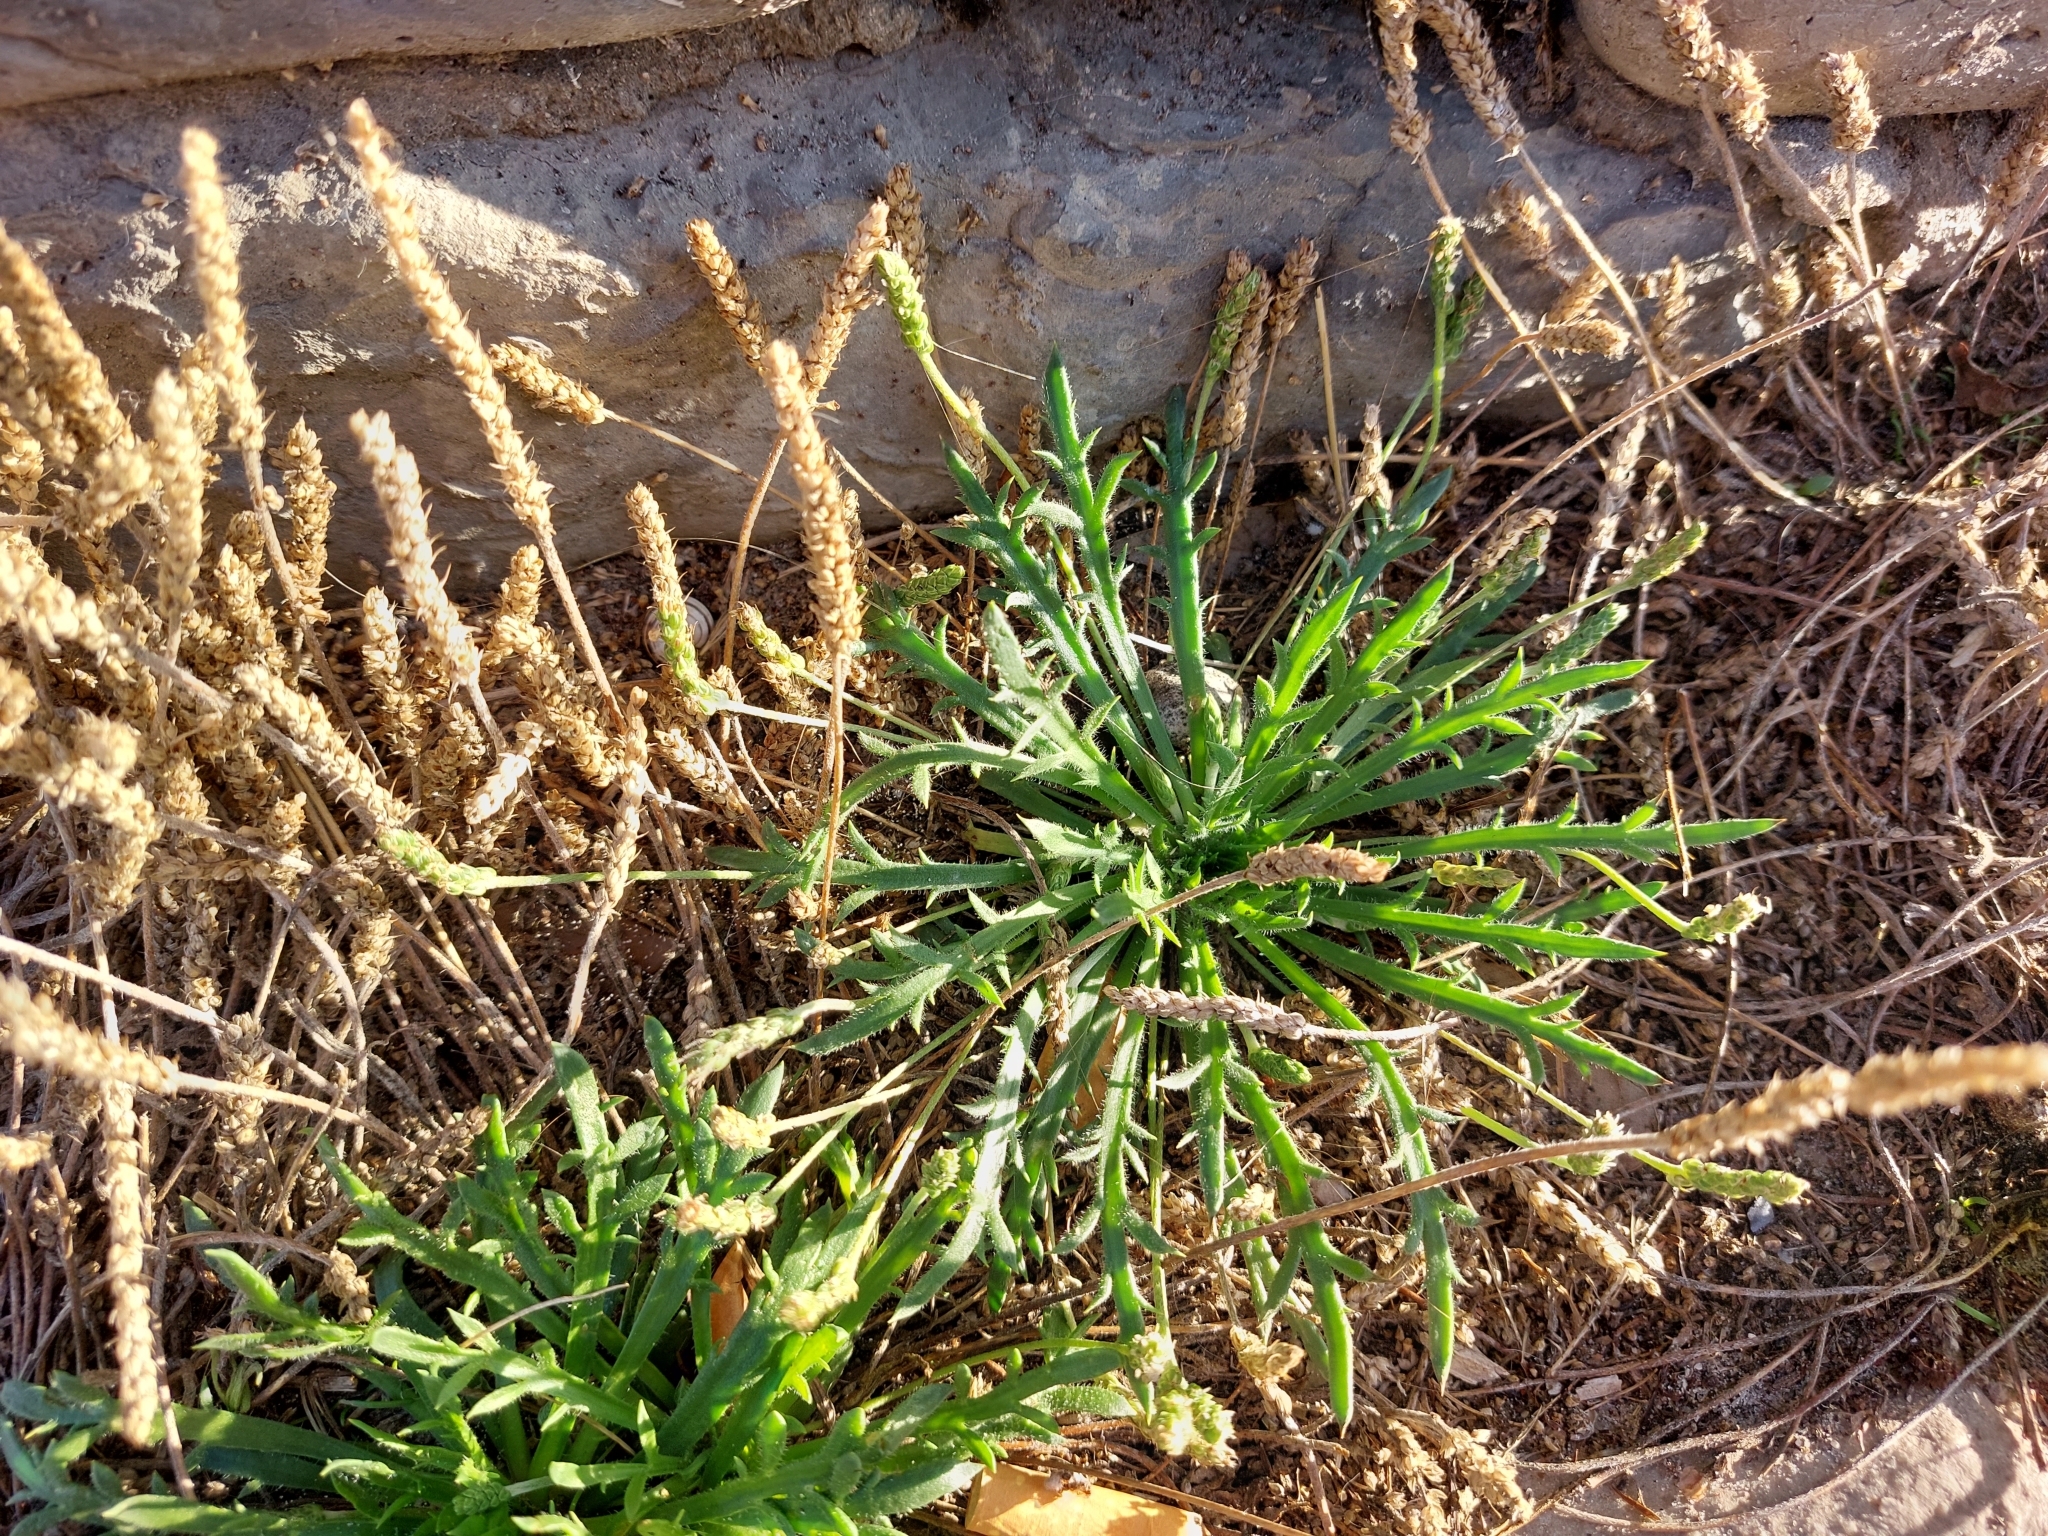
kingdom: Plantae
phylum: Tracheophyta
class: Magnoliopsida
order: Lamiales
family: Plantaginaceae
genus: Plantago
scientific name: Plantago coronopus
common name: Buck's-horn plantain
